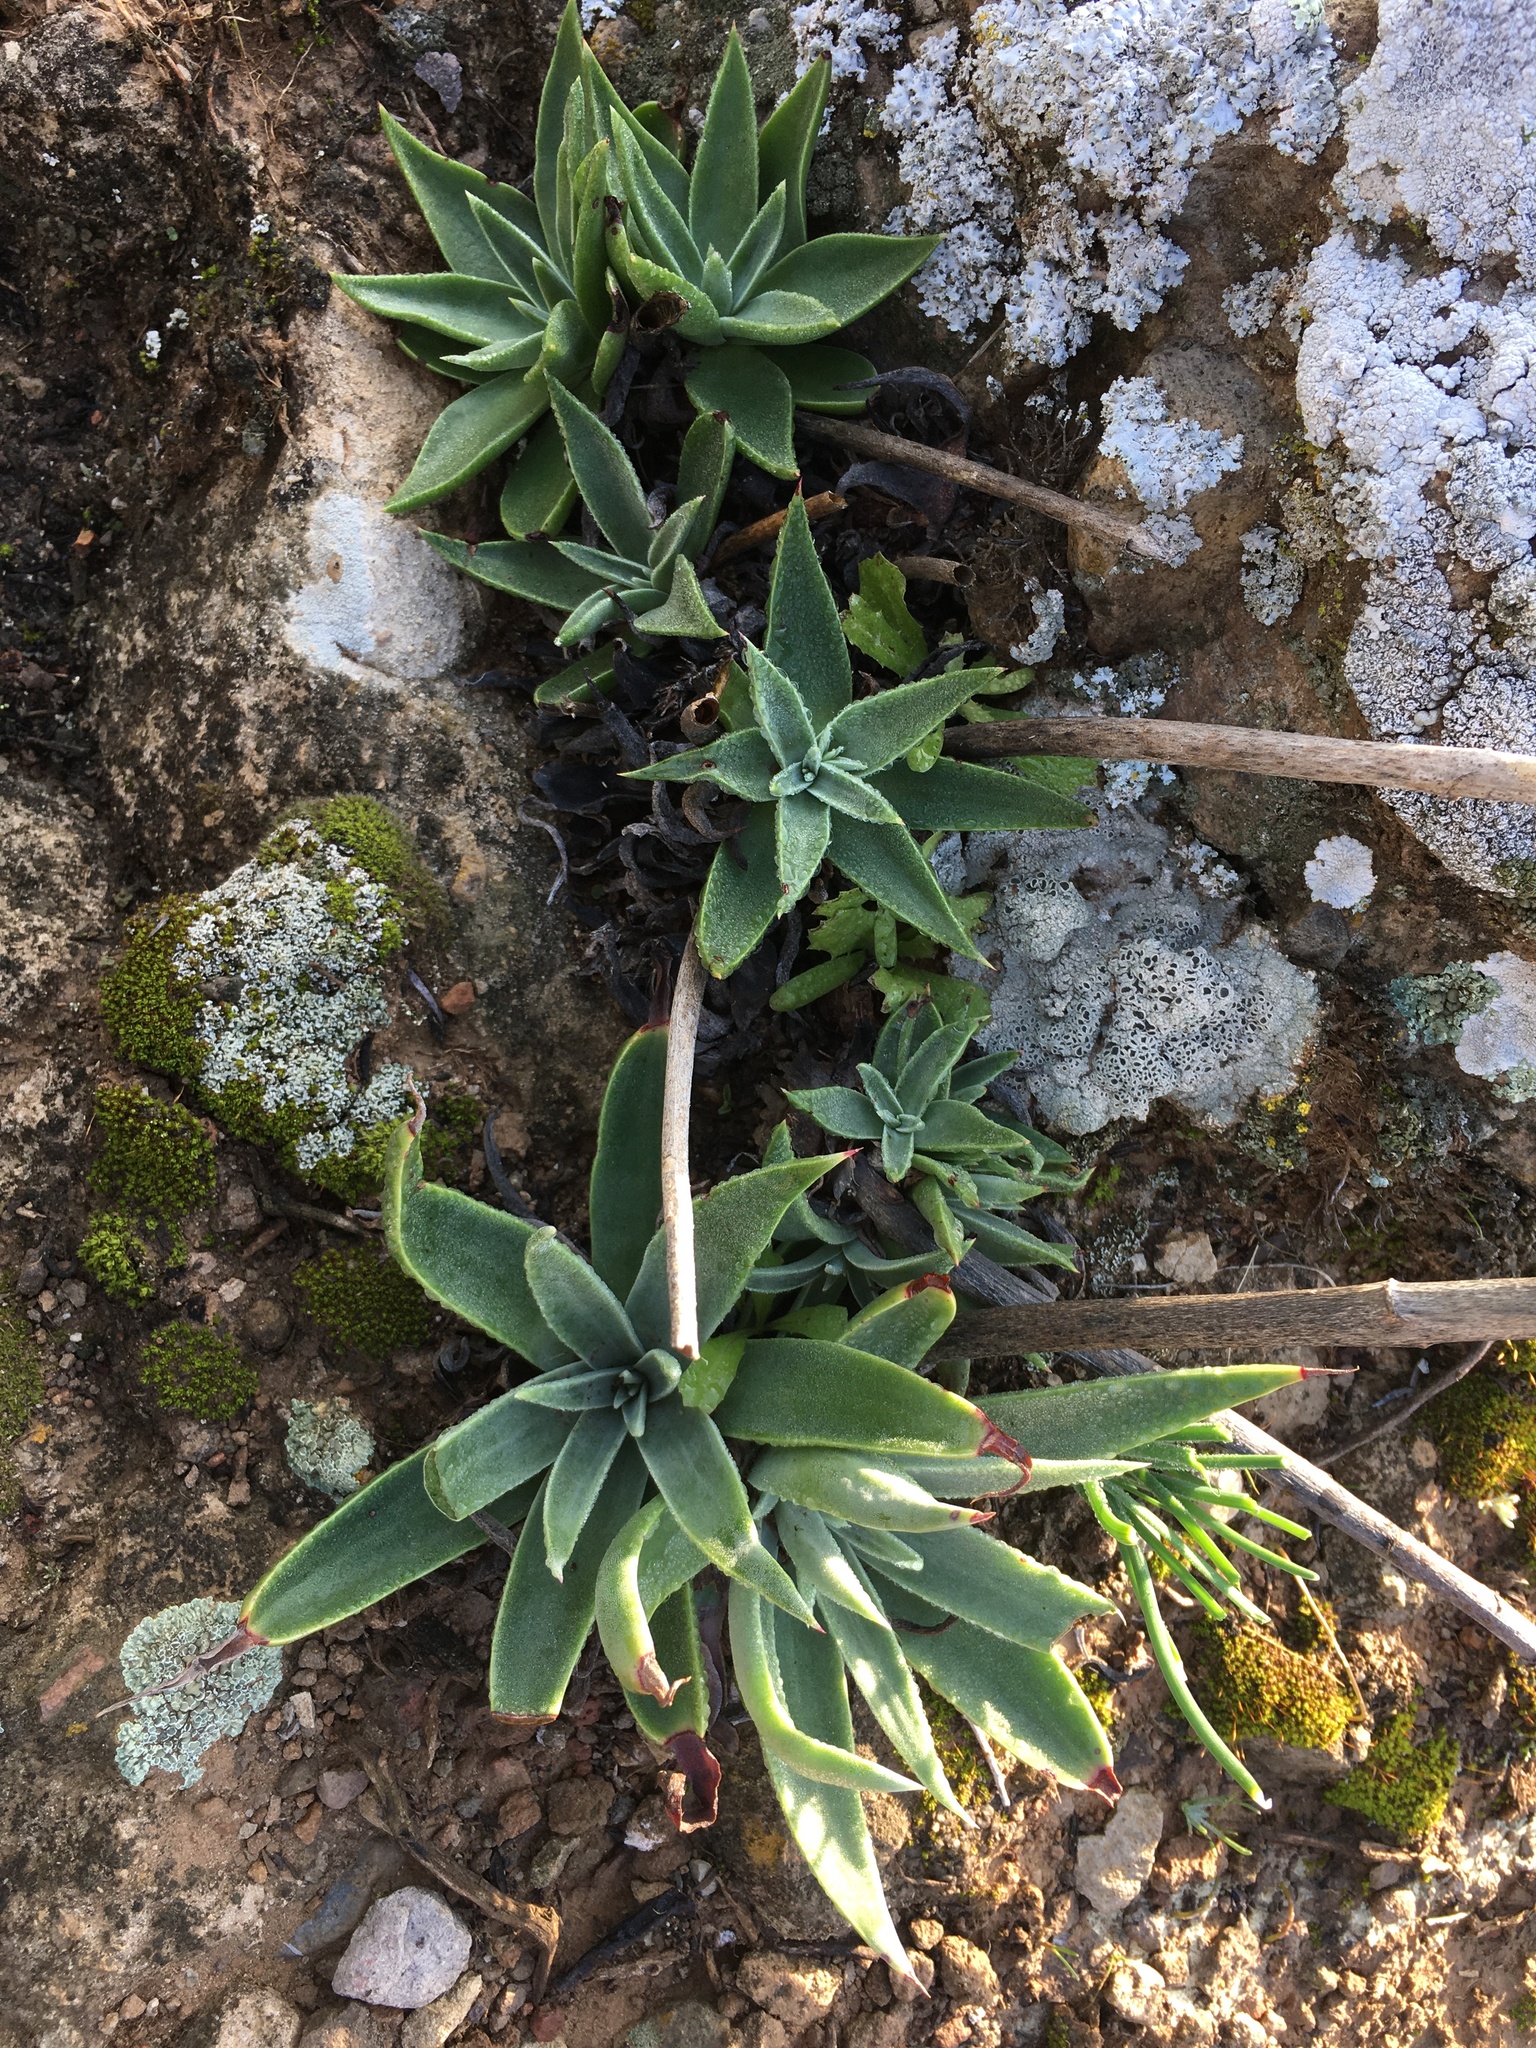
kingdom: Plantae
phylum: Tracheophyta
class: Magnoliopsida
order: Saxifragales
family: Crassulaceae
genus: Dudleya
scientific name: Dudleya lanceolata
